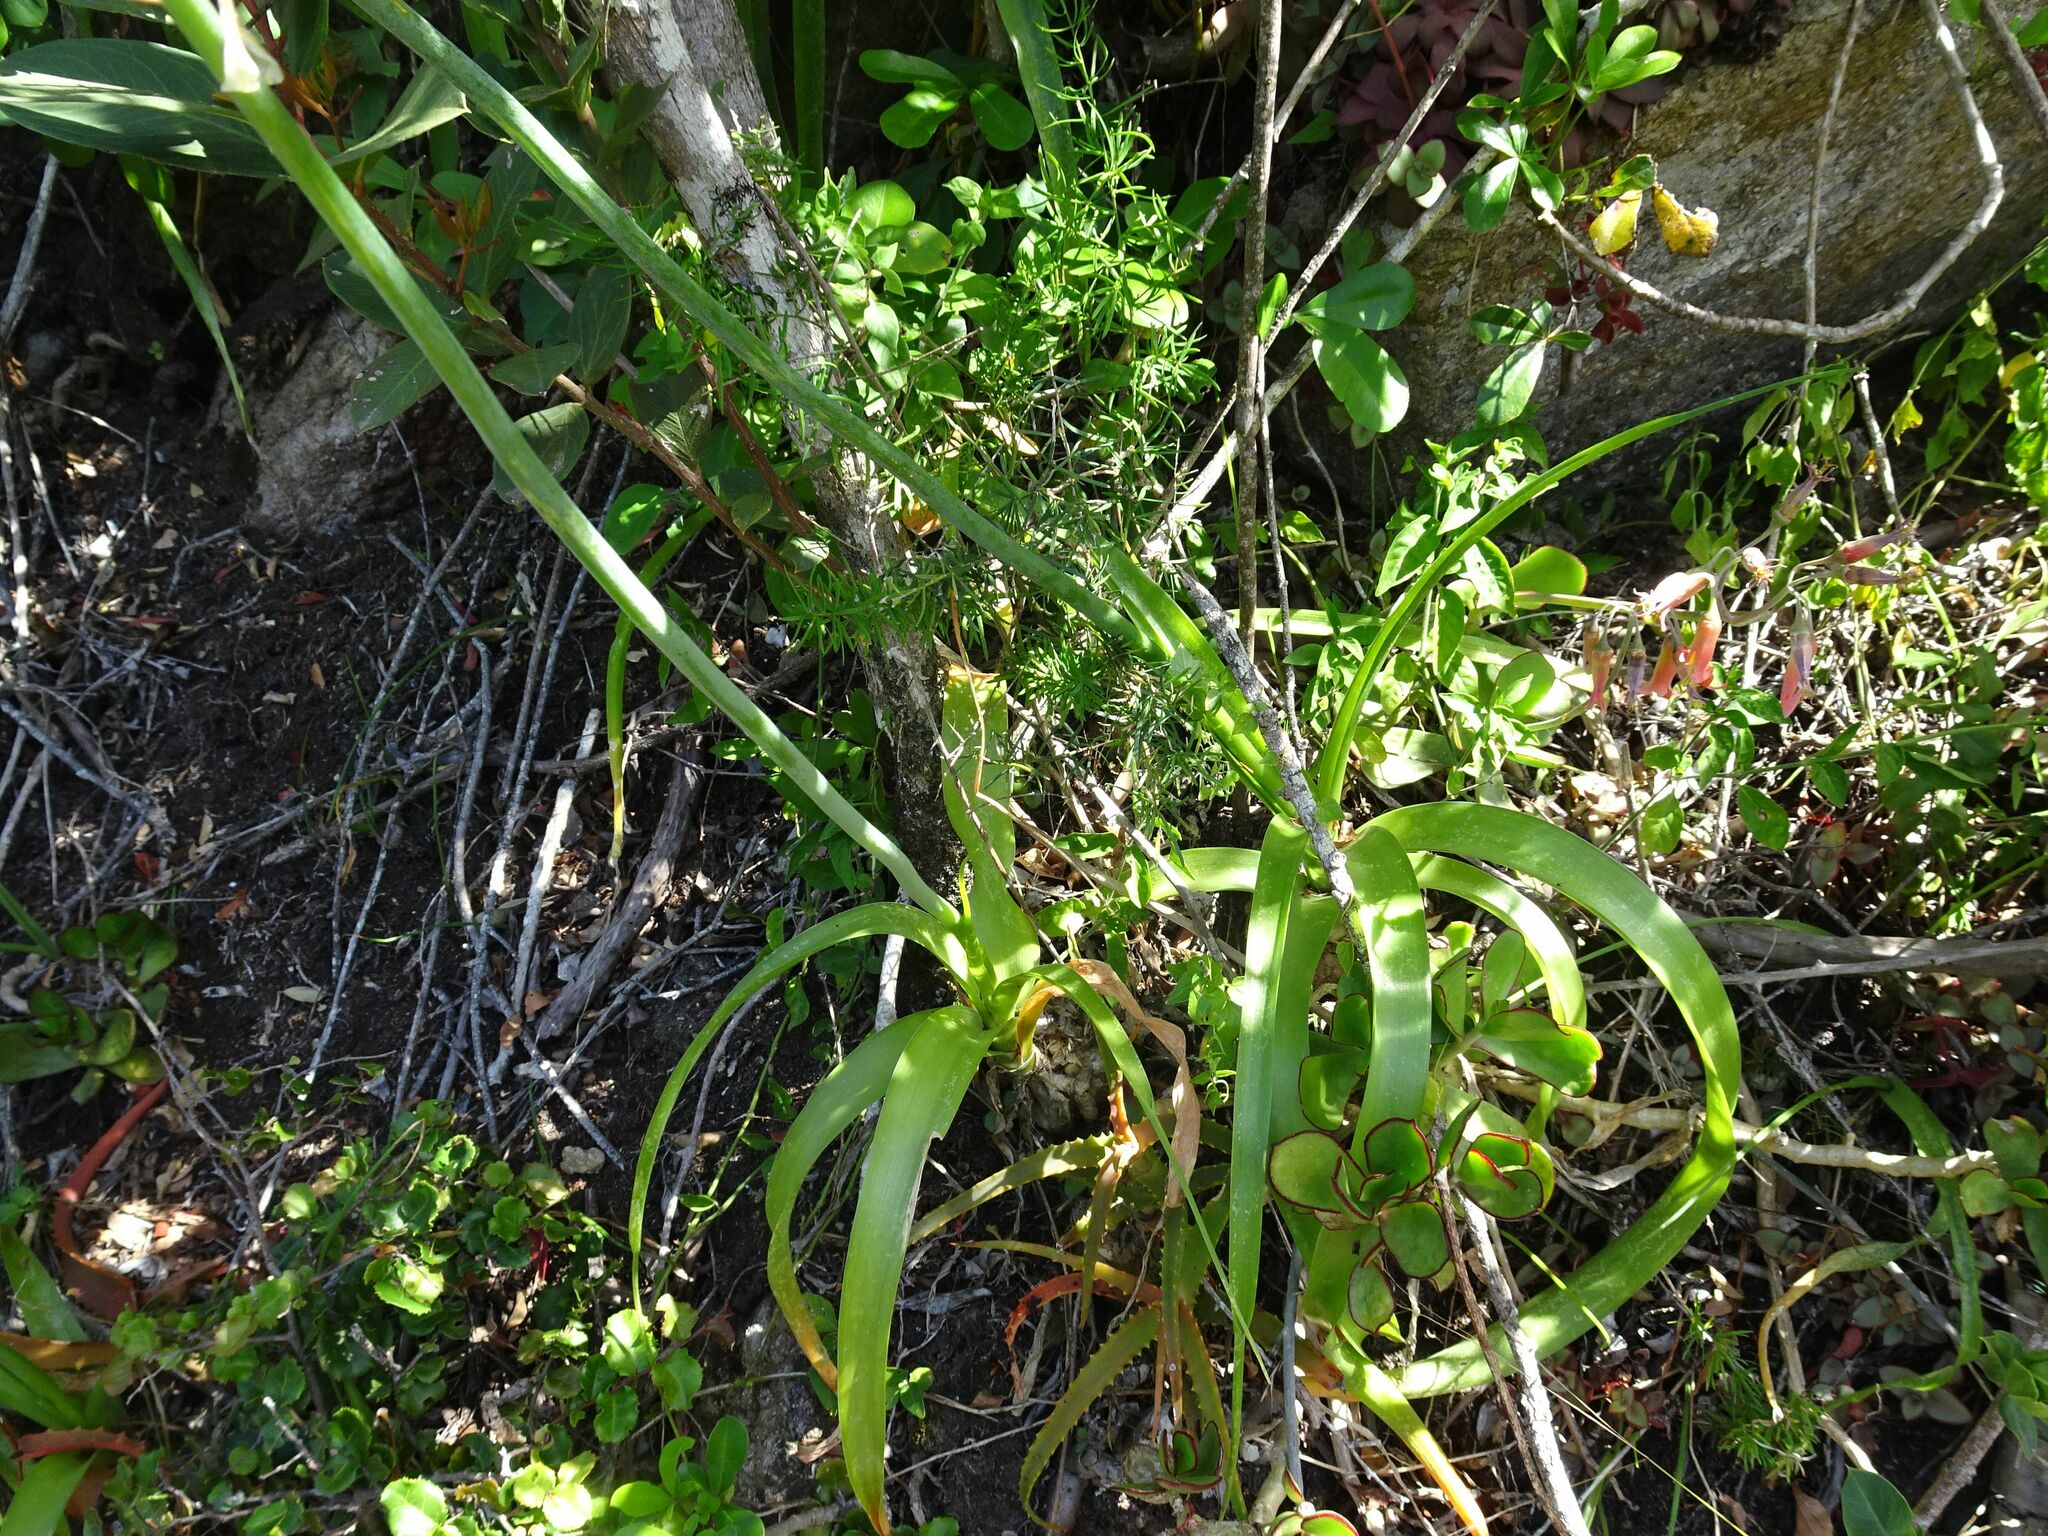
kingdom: Plantae
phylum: Tracheophyta
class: Liliopsida
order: Asparagales
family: Asparagaceae
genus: Albuca
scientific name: Albuca bracteata
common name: Sea-onion
